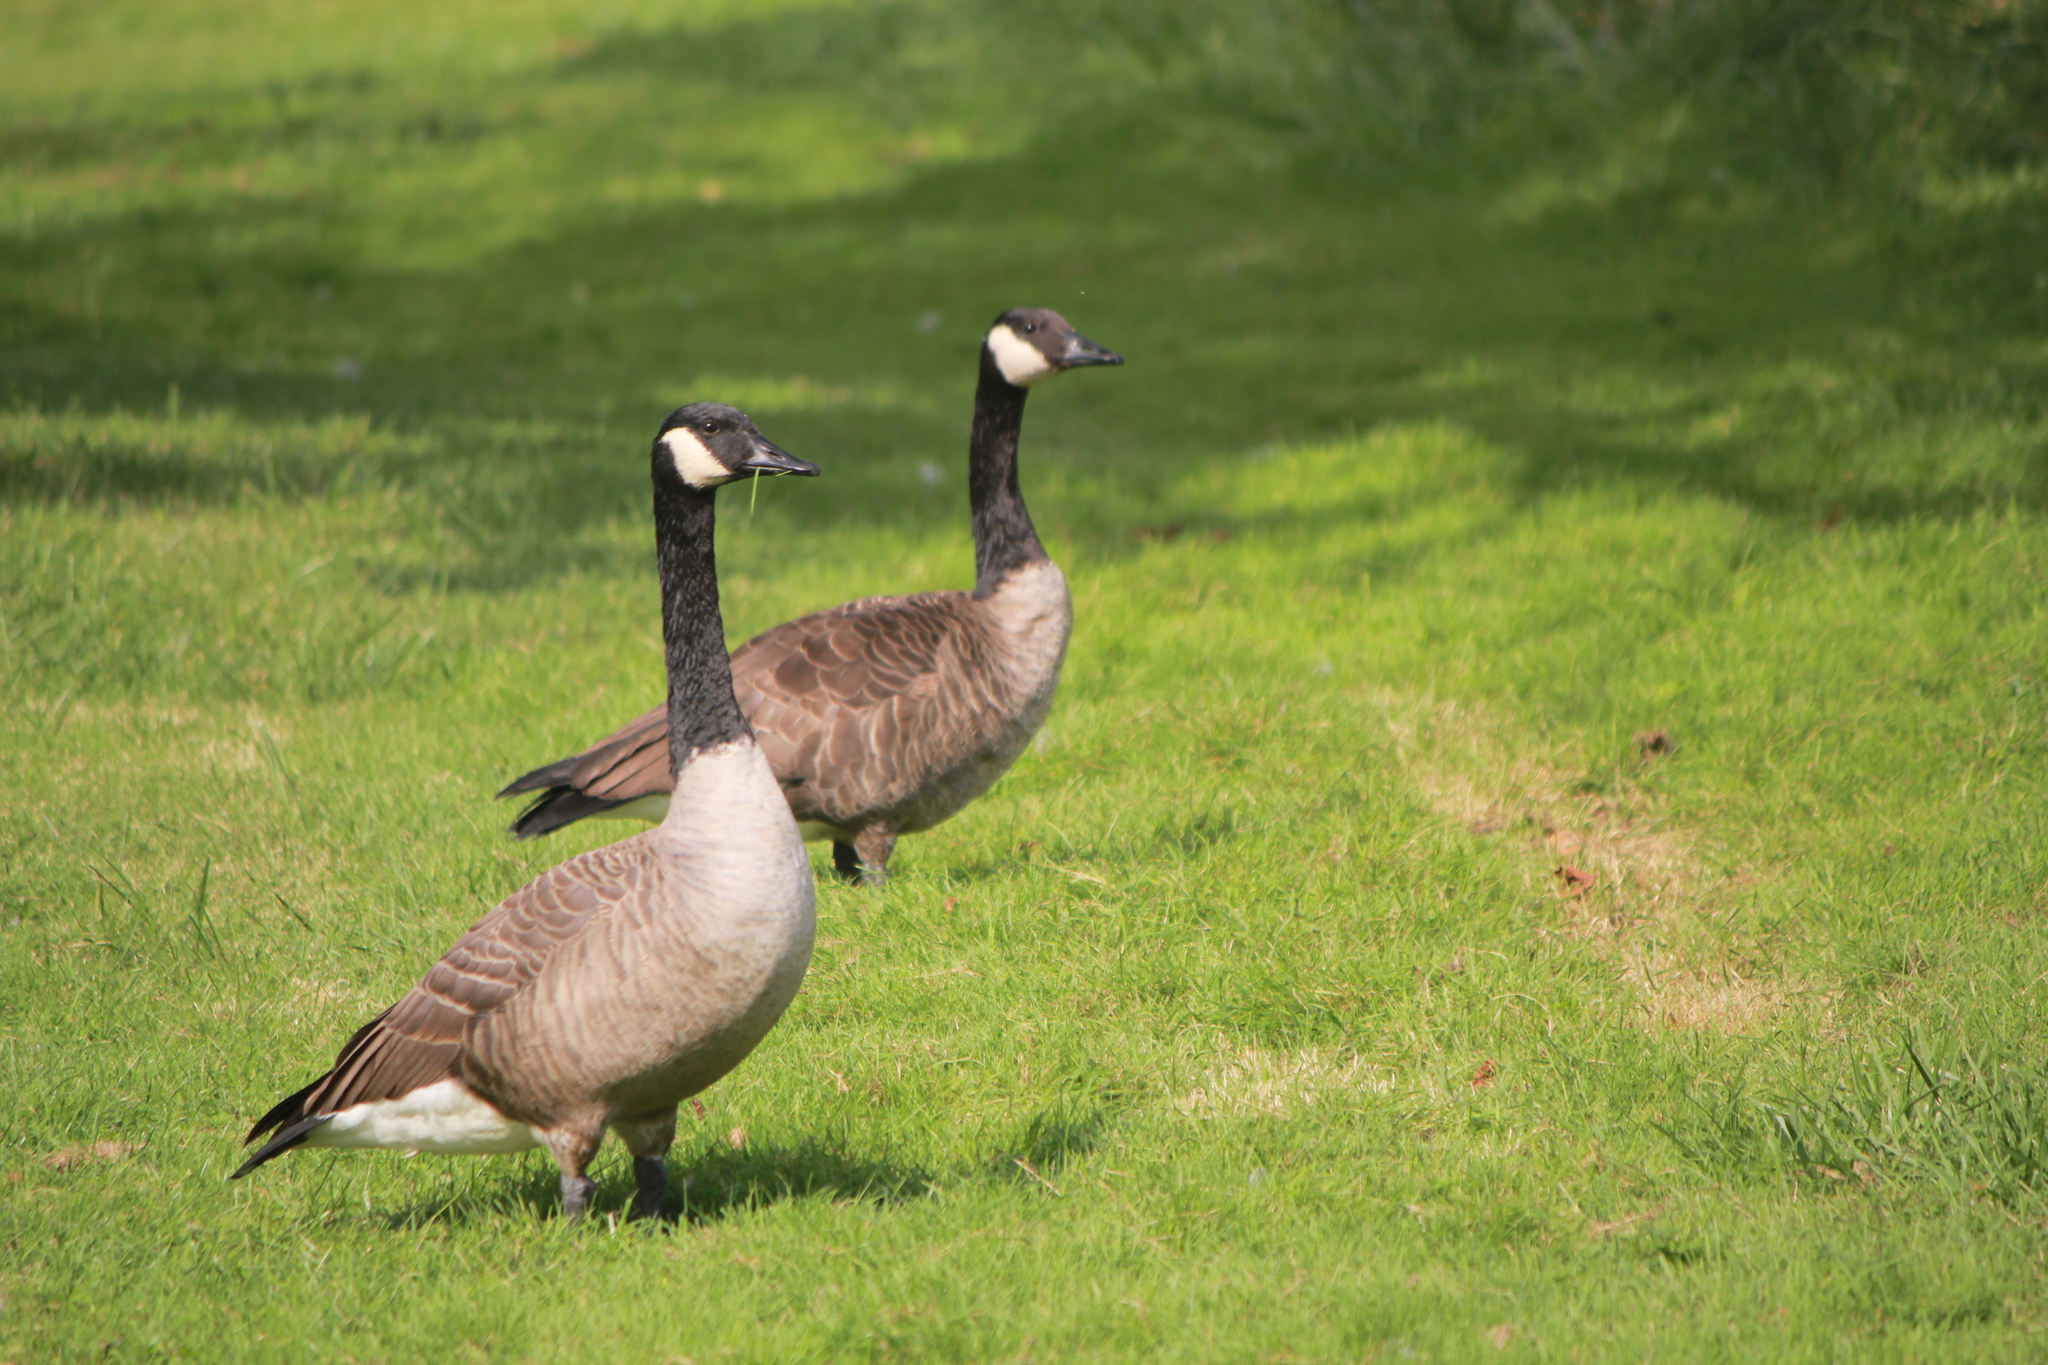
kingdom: Animalia
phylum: Chordata
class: Aves
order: Anseriformes
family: Anatidae
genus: Branta
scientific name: Branta canadensis
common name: Canada goose
